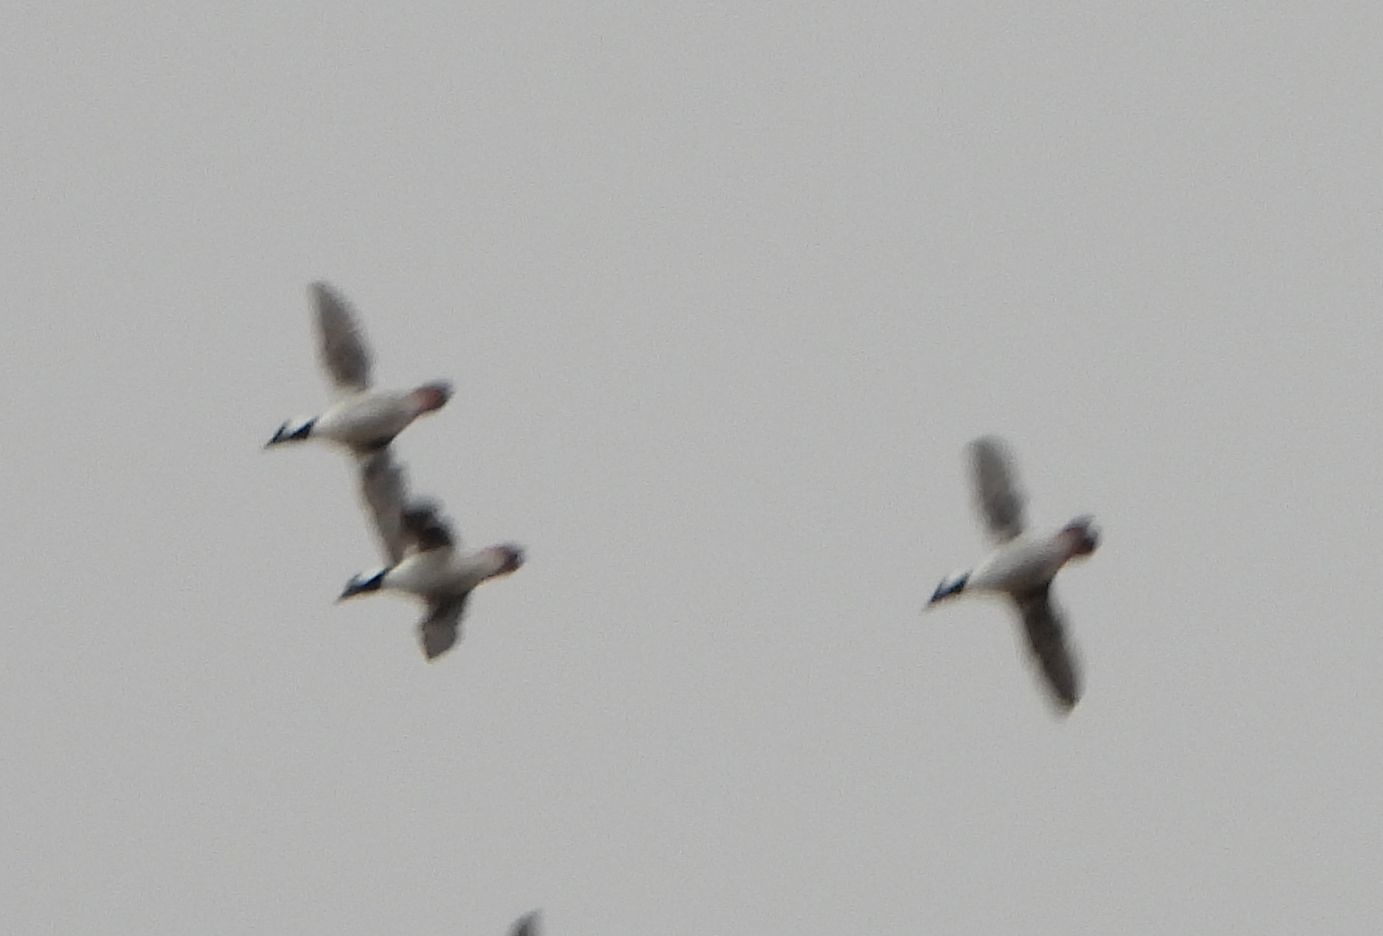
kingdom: Animalia
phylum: Chordata
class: Aves
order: Anseriformes
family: Anatidae
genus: Bucephala
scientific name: Bucephala albeola
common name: Bufflehead
